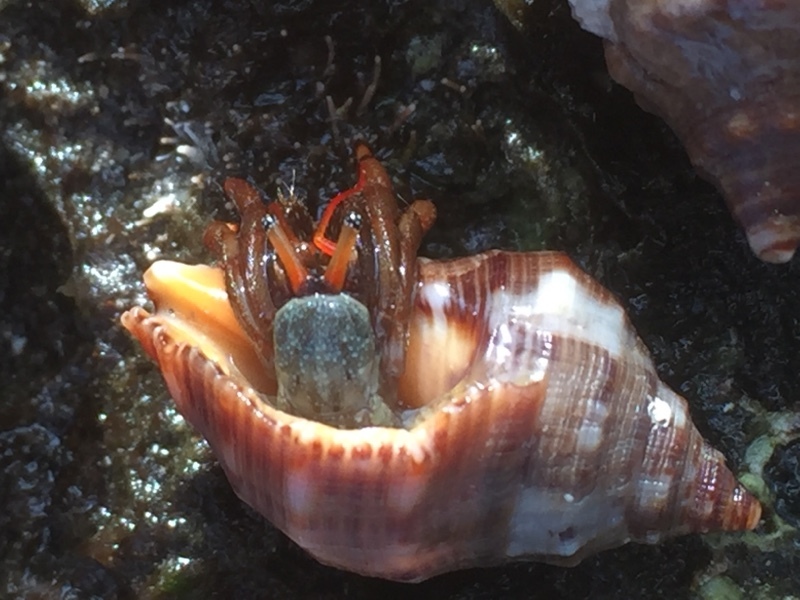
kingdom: Animalia
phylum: Arthropoda
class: Malacostraca
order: Decapoda
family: Diogenidae
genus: Clibanarius
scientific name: Clibanarius aequabilis
